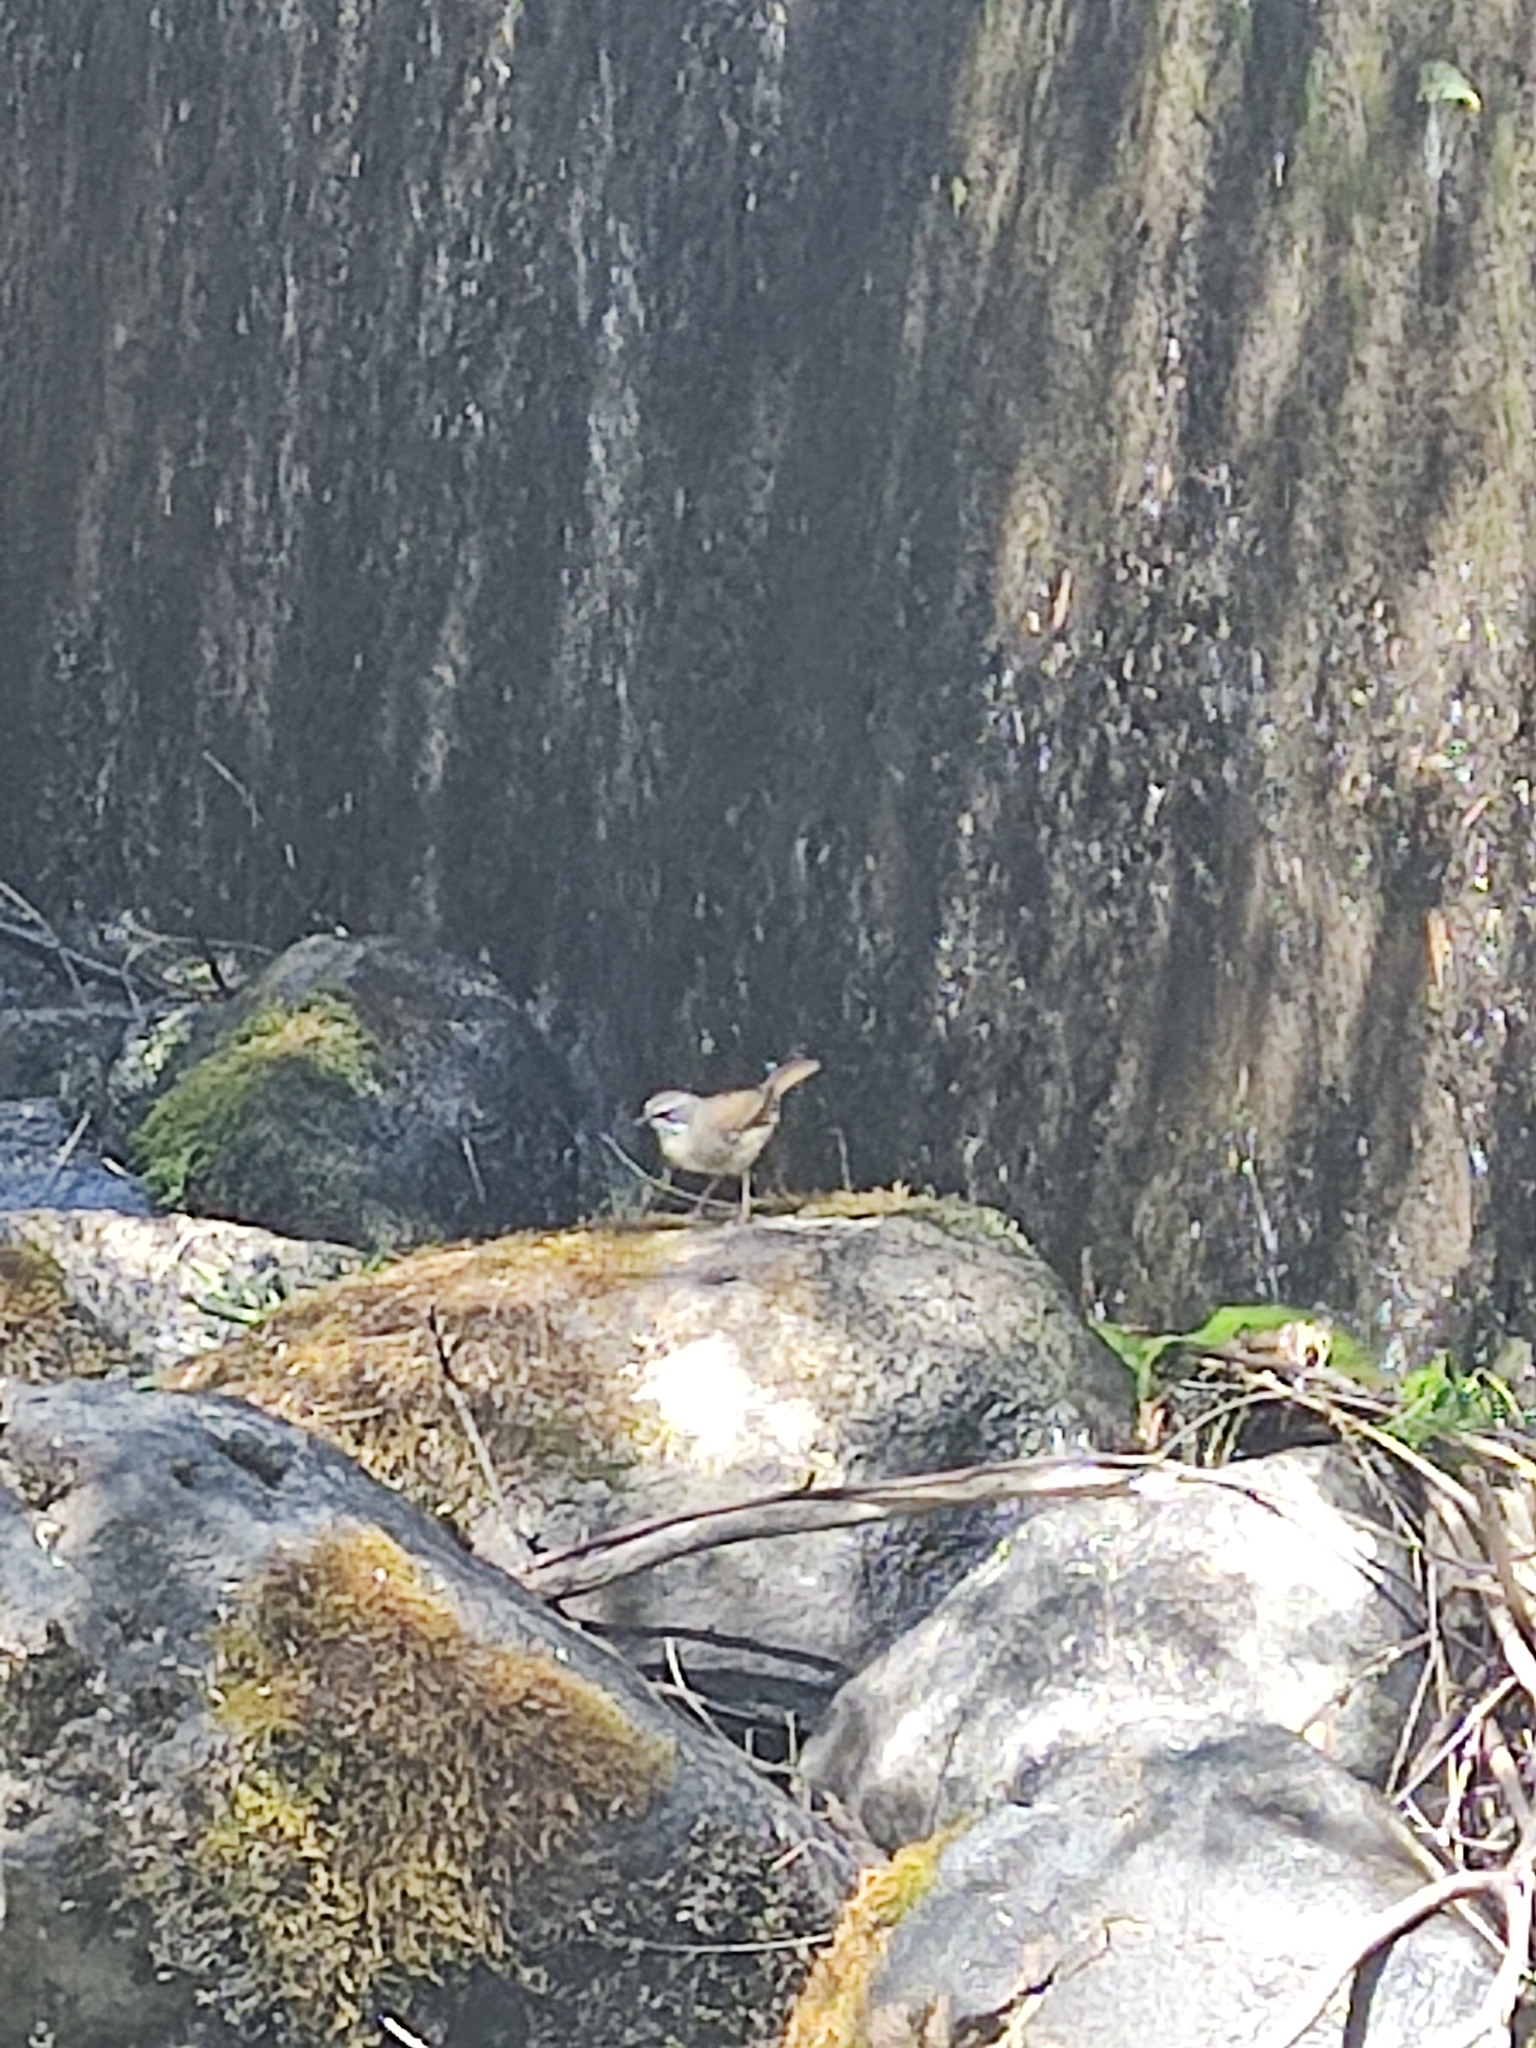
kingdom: Animalia
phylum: Chordata
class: Aves
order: Passeriformes
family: Acanthizidae
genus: Sericornis
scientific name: Sericornis frontalis
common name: White-browed scrubwren
